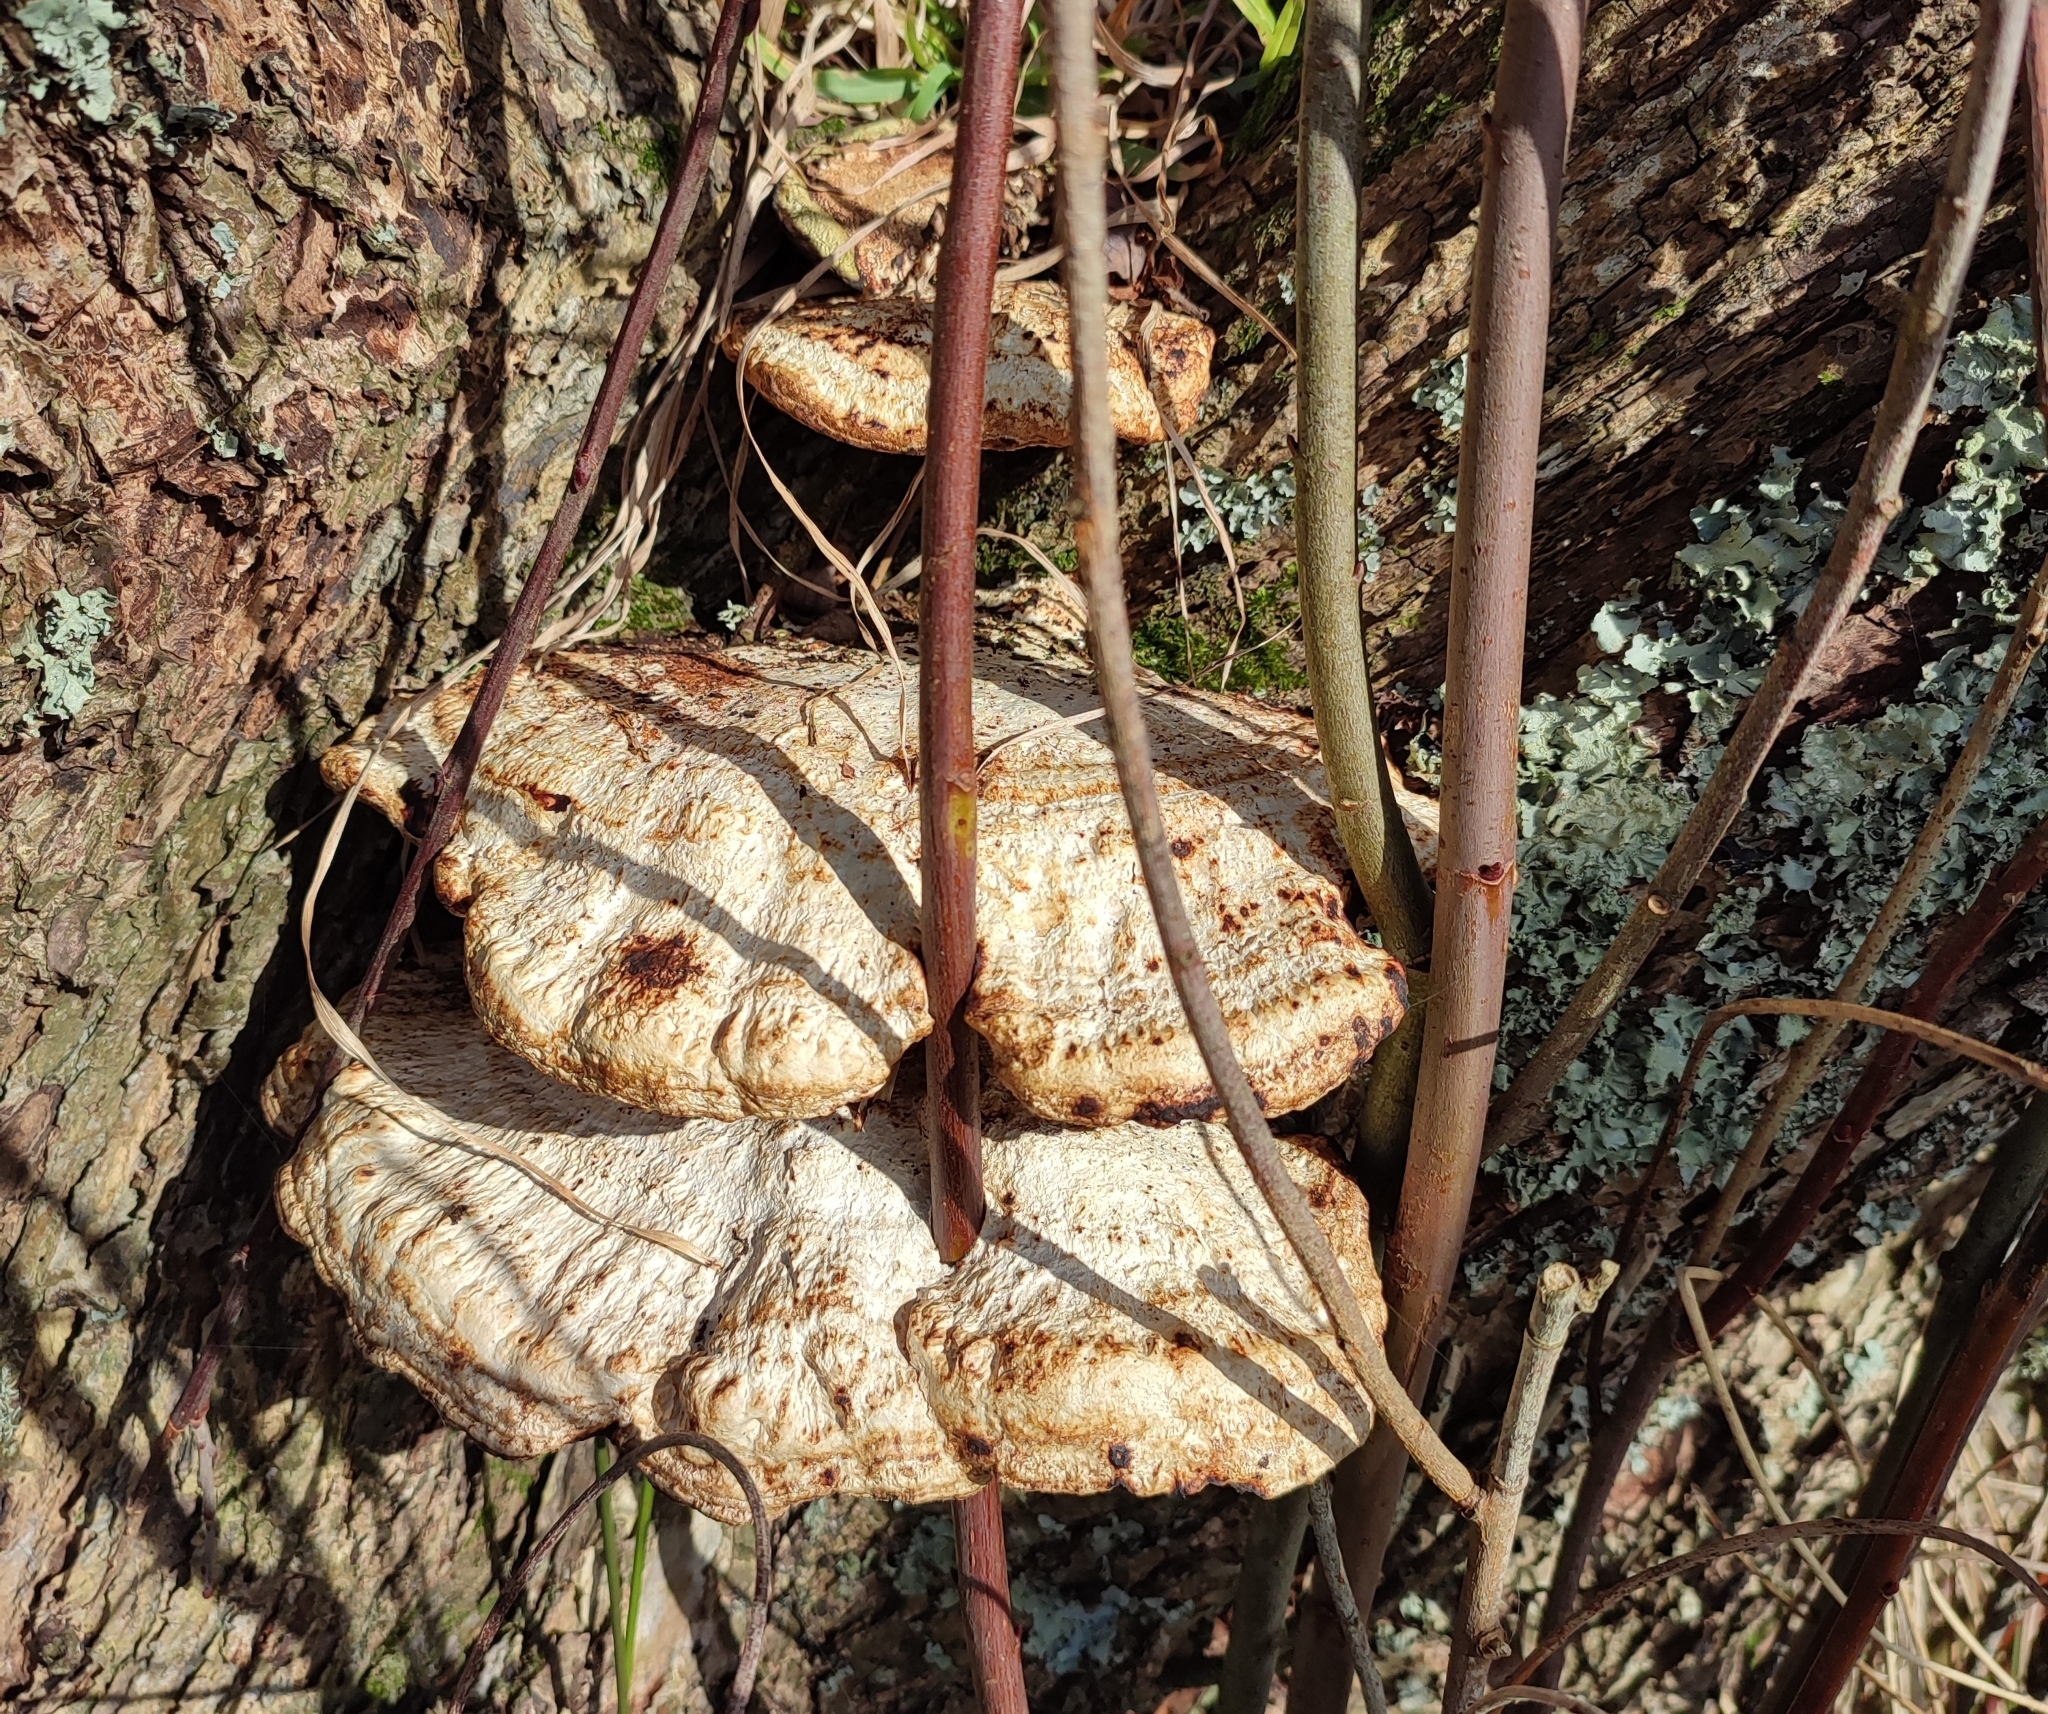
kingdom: Fungi
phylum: Basidiomycota
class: Agaricomycetes
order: Polyporales
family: Polyporaceae
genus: Daedaleopsis
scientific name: Daedaleopsis confragosa
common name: Blushing bracket
